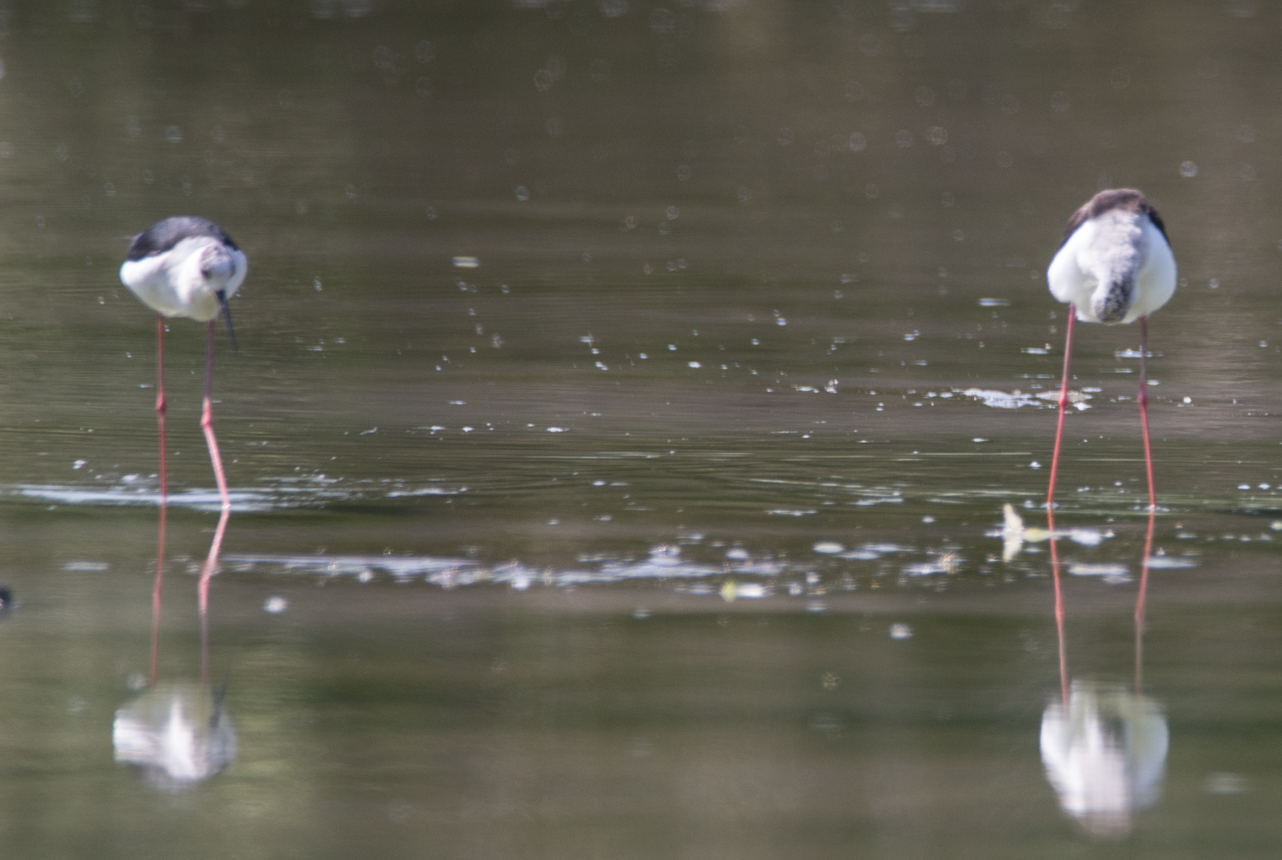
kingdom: Animalia
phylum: Chordata
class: Aves
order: Charadriiformes
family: Recurvirostridae
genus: Himantopus
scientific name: Himantopus himantopus
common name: Black-winged stilt
